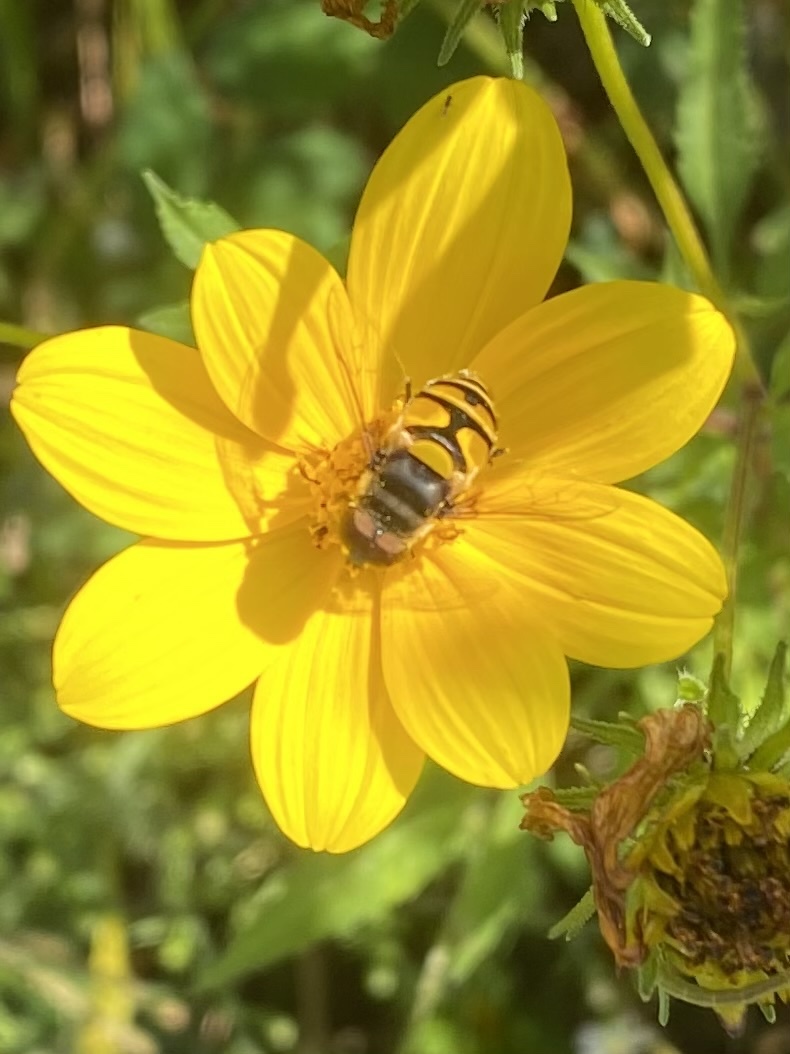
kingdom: Animalia
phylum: Arthropoda
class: Insecta
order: Diptera
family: Syrphidae
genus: Eristalis
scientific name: Eristalis transversa
